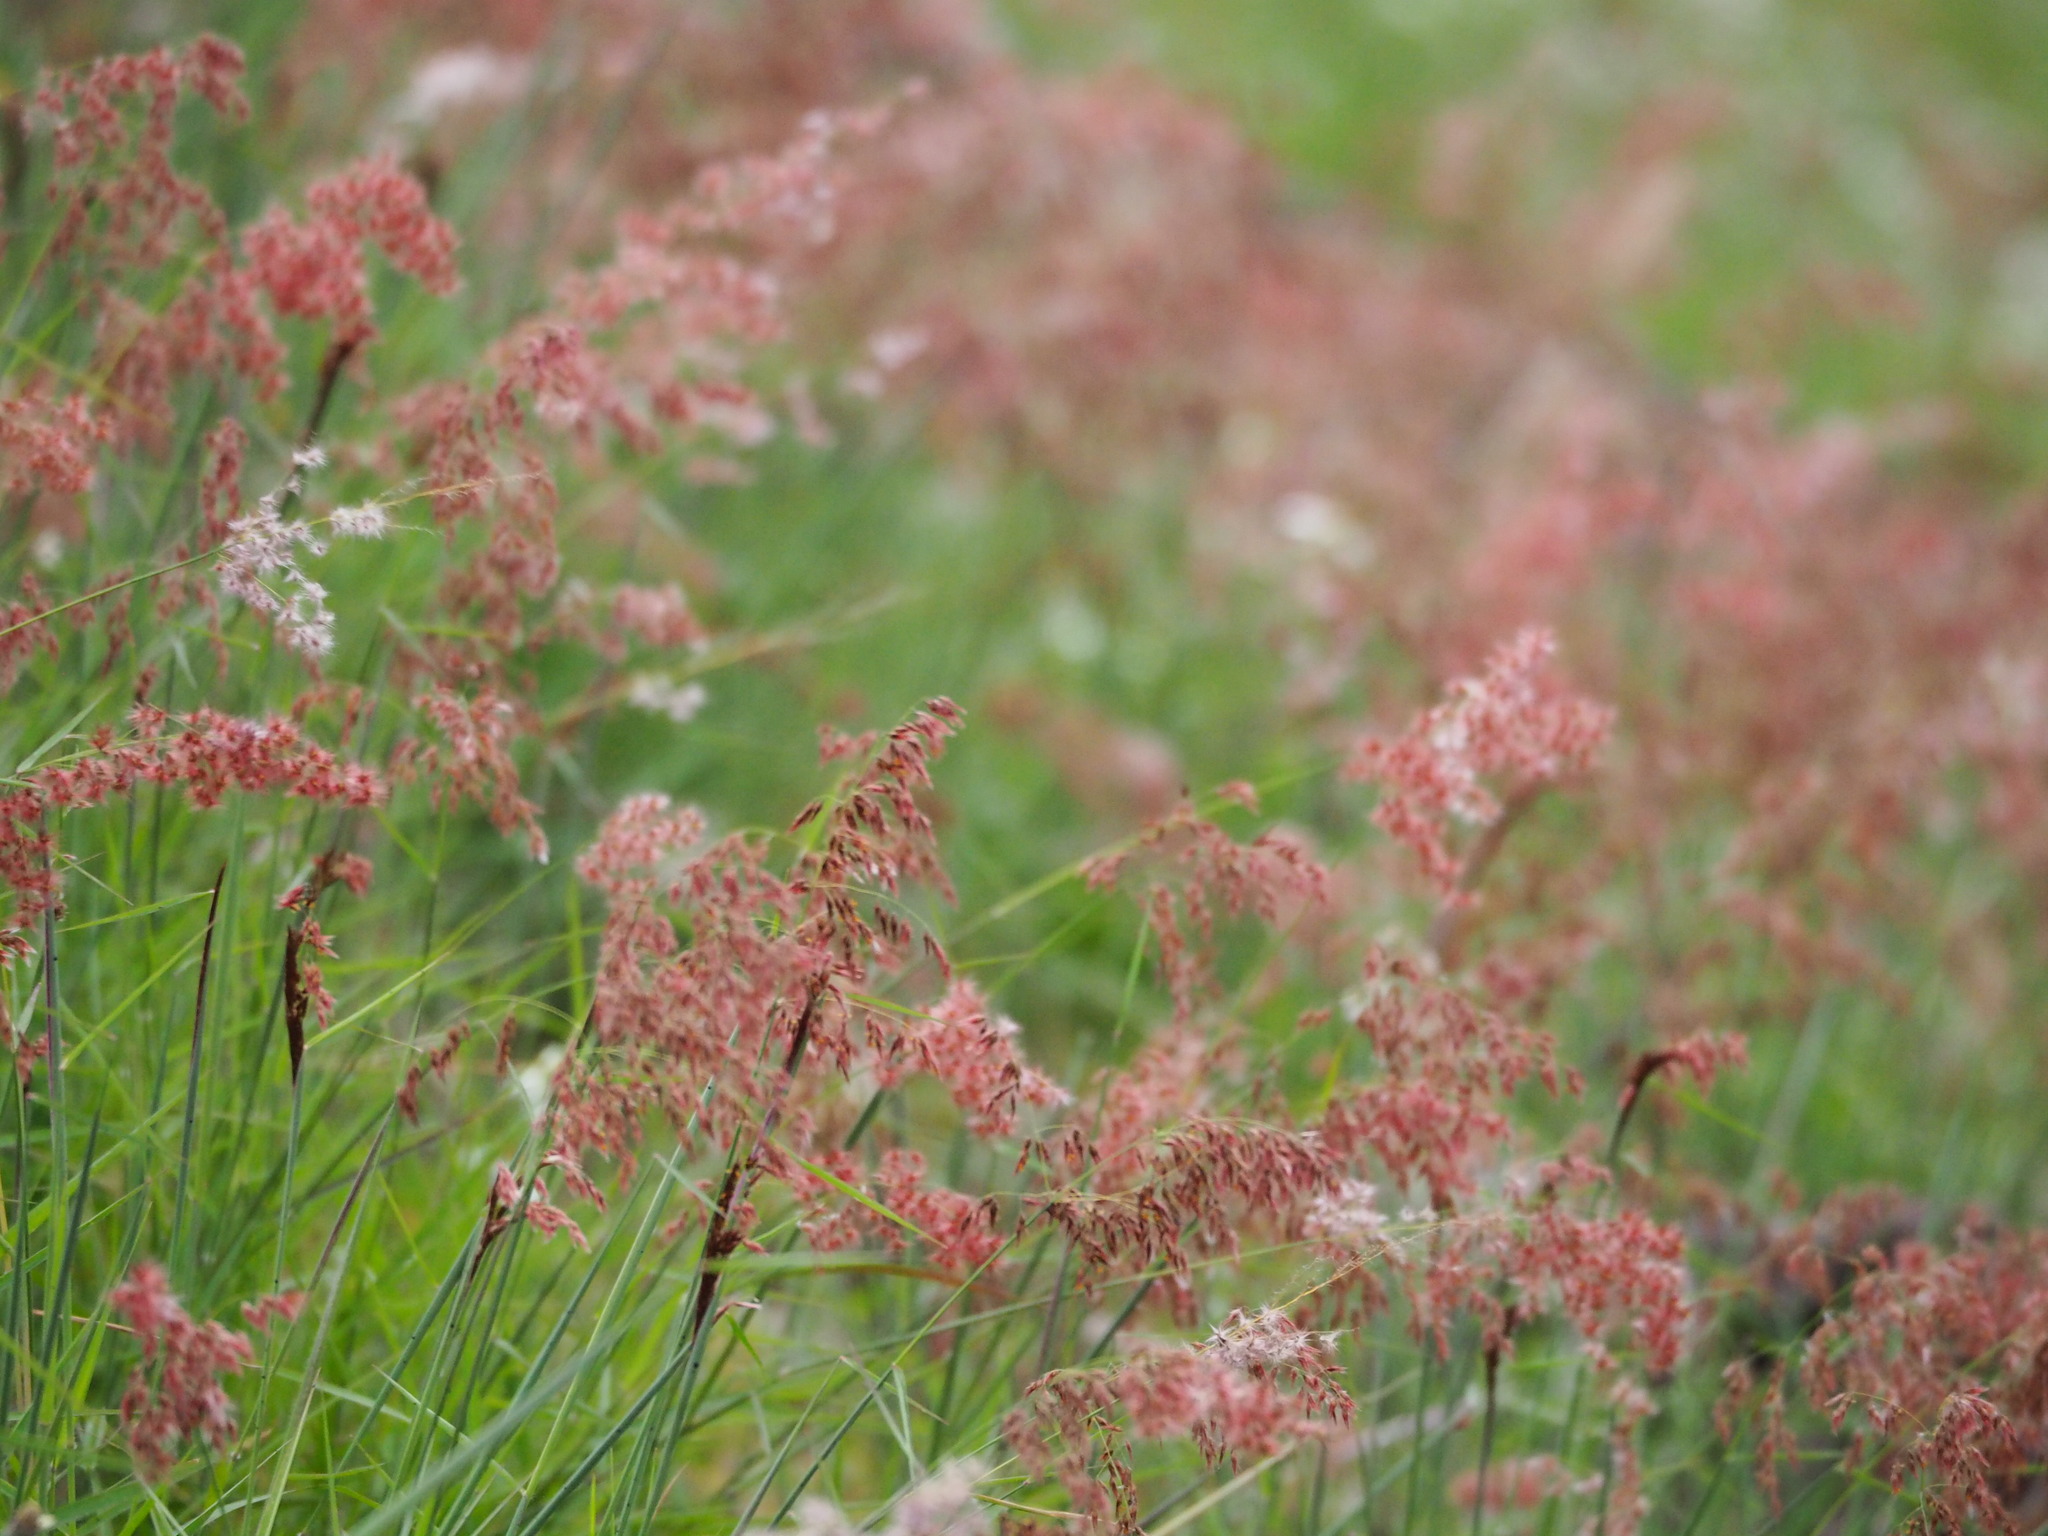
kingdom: Plantae
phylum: Tracheophyta
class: Liliopsida
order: Poales
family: Poaceae
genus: Melinis
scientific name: Melinis repens
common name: Rose natal grass
